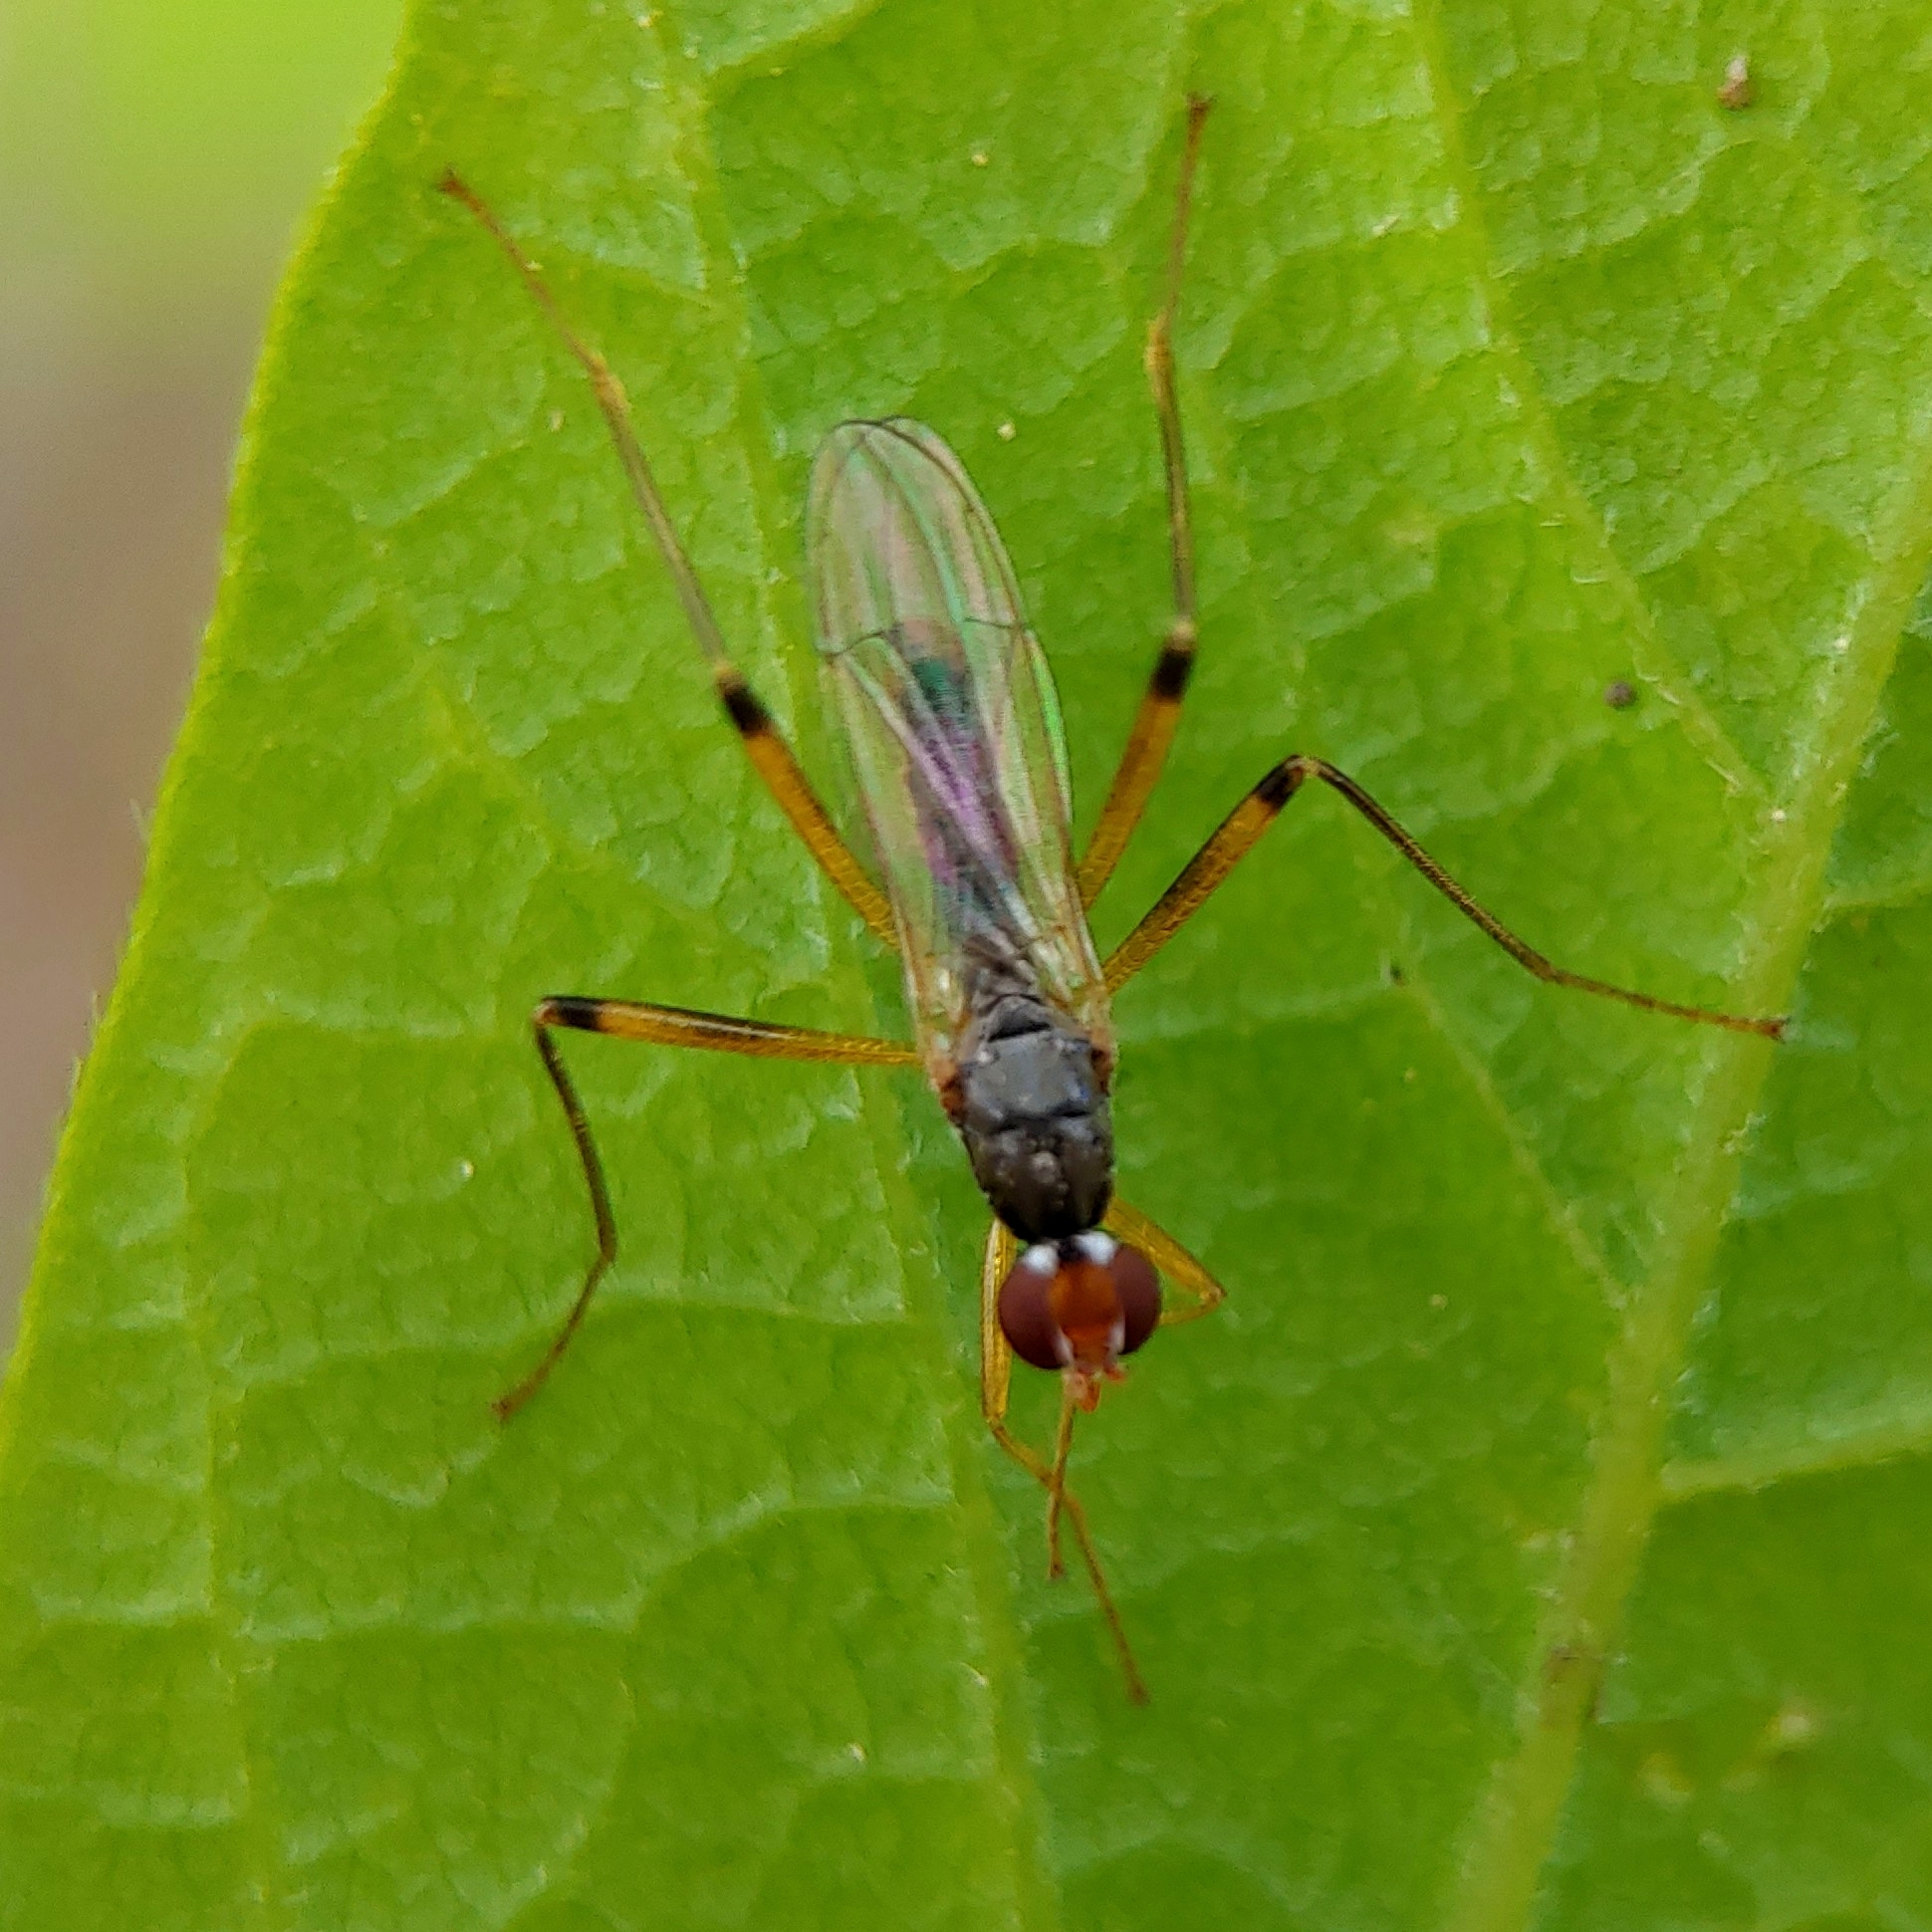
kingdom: Animalia
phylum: Arthropoda
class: Insecta
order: Diptera
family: Micropezidae
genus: Compsobata
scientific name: Compsobata cibaria
